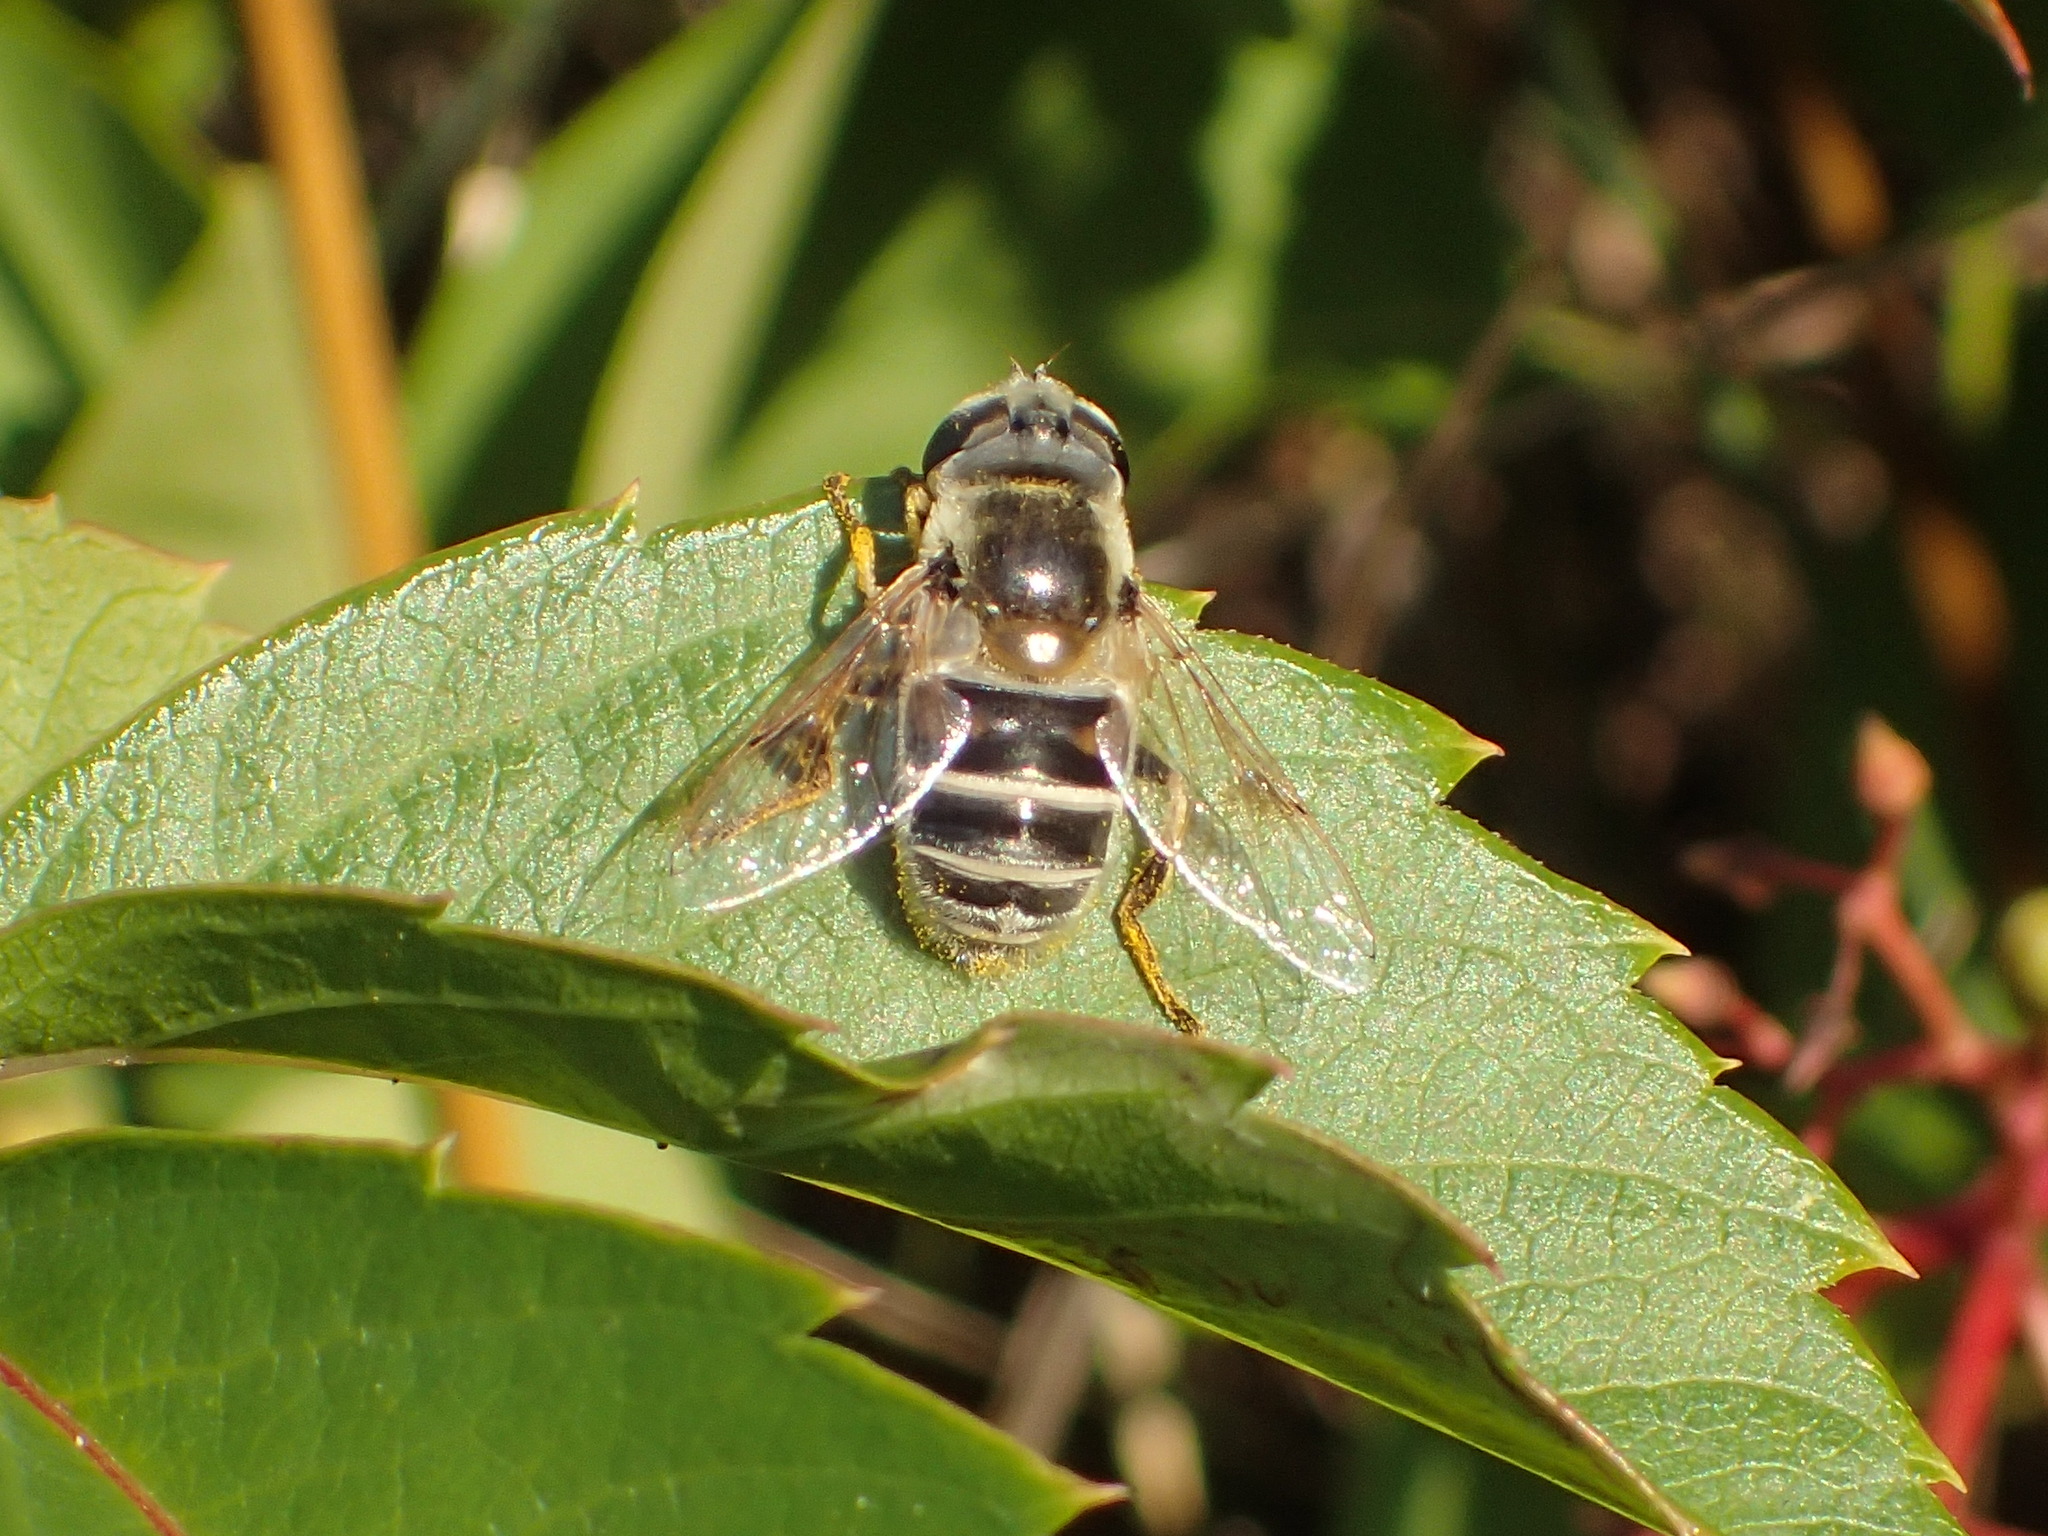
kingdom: Animalia
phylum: Arthropoda
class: Insecta
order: Diptera
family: Syrphidae
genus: Eristalis
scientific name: Eristalis stipator
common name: Yellow-shouldered drone fly
